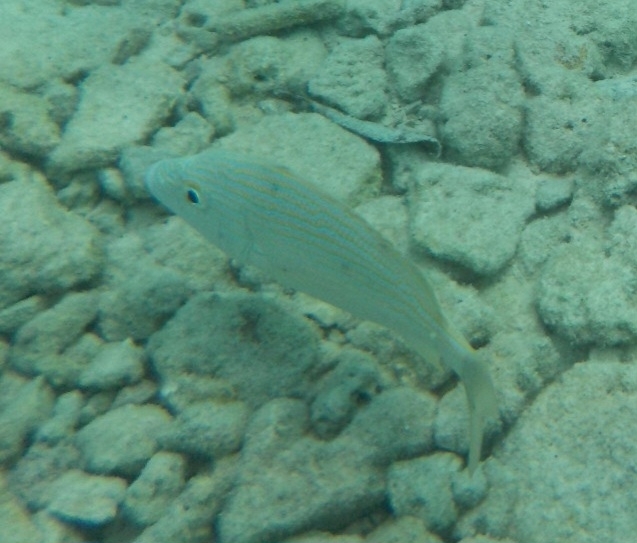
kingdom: Animalia
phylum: Chordata
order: Perciformes
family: Haemulidae
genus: Haemulon
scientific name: Haemulon sciurus
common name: Bluestriped grunt
